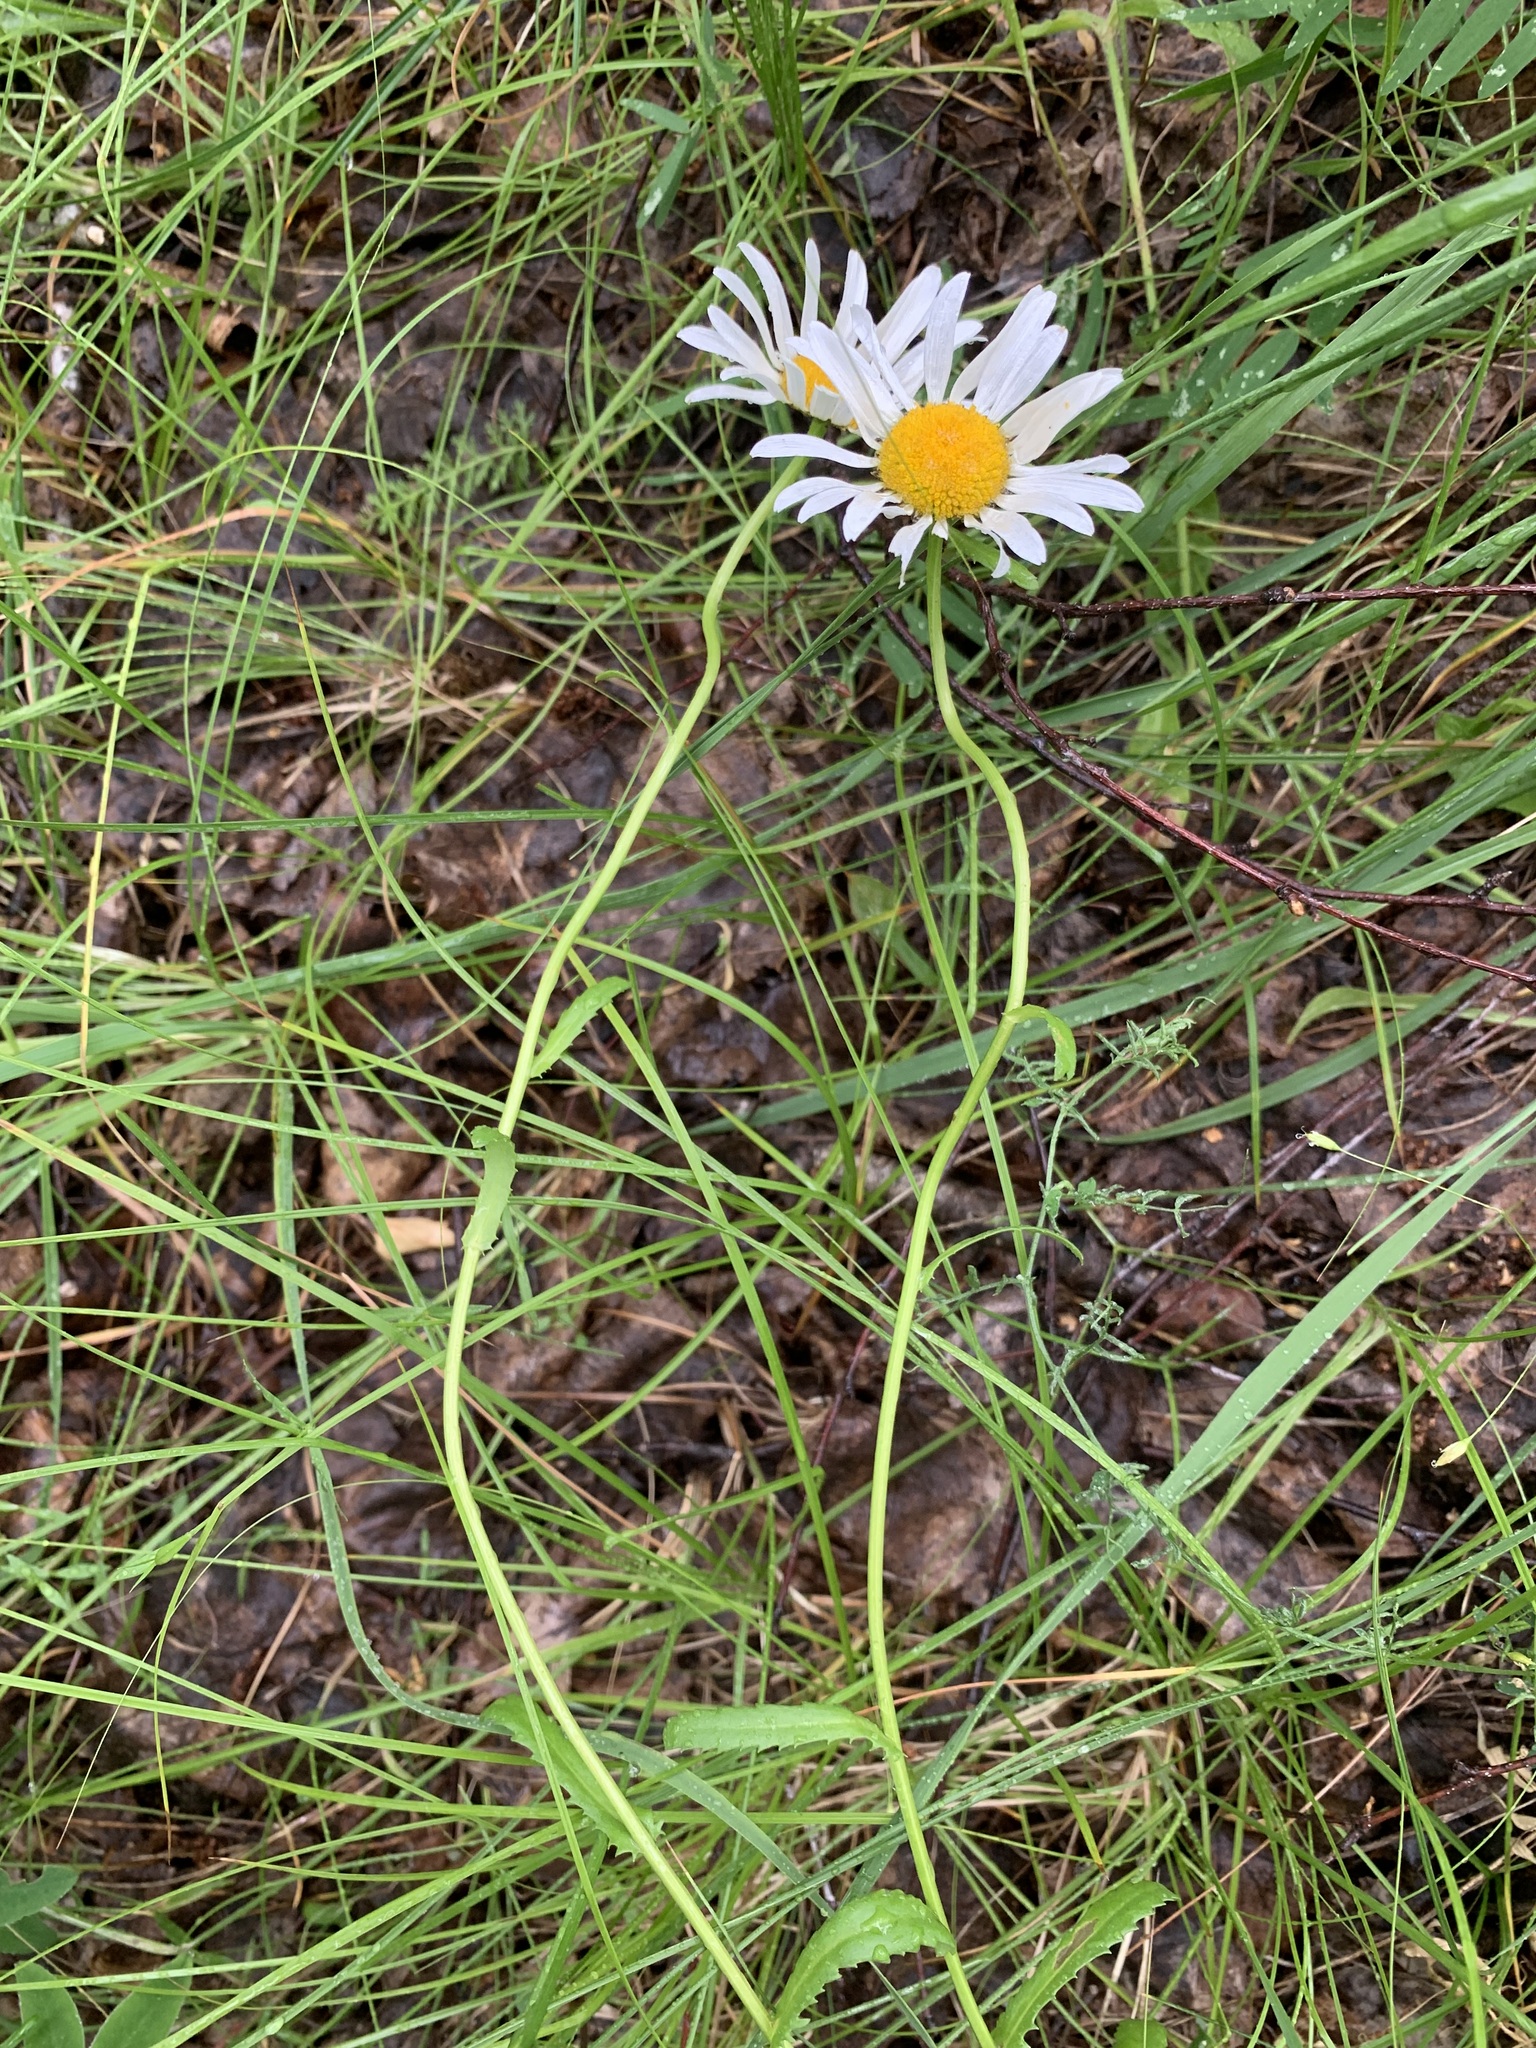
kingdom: Plantae
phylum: Tracheophyta
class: Magnoliopsida
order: Asterales
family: Asteraceae
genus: Leucanthemum
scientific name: Leucanthemum ircutianum
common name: Daisy
